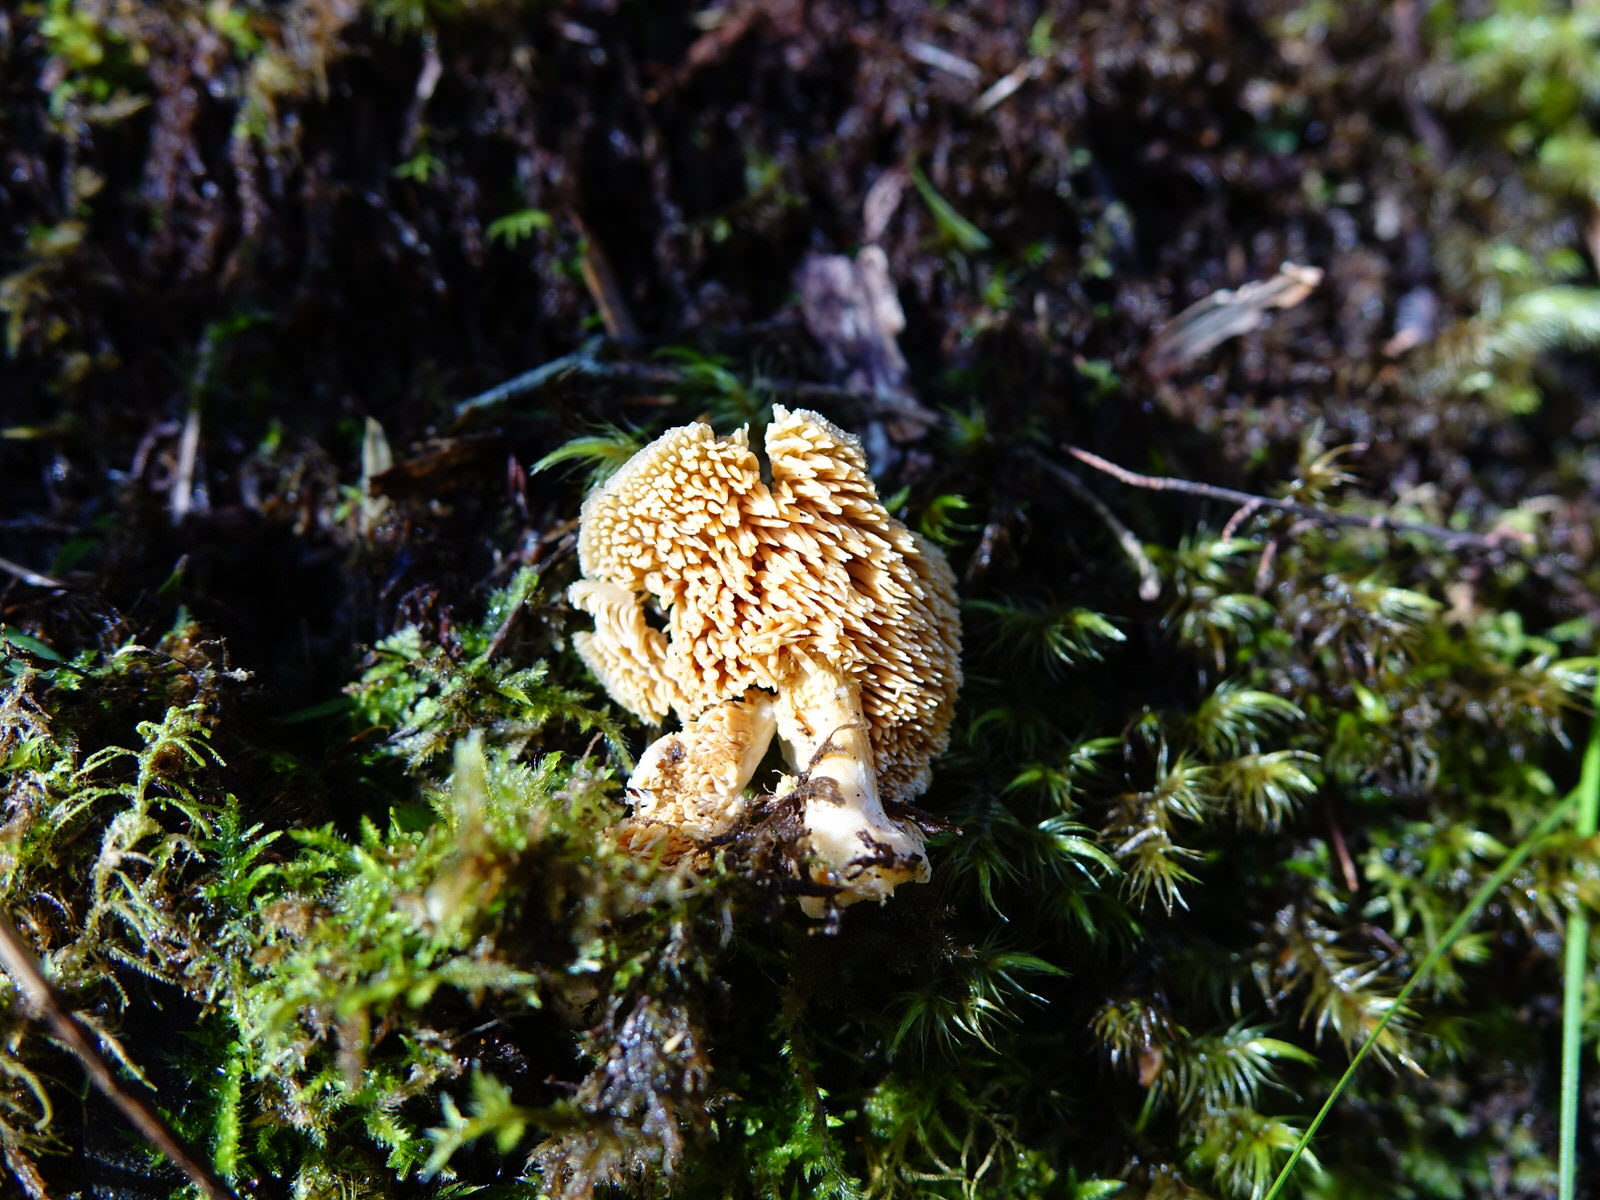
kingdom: Fungi
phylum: Basidiomycota
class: Agaricomycetes
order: Cantharellales
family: Hydnaceae
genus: Hydnum
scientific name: Hydnum ambustum
